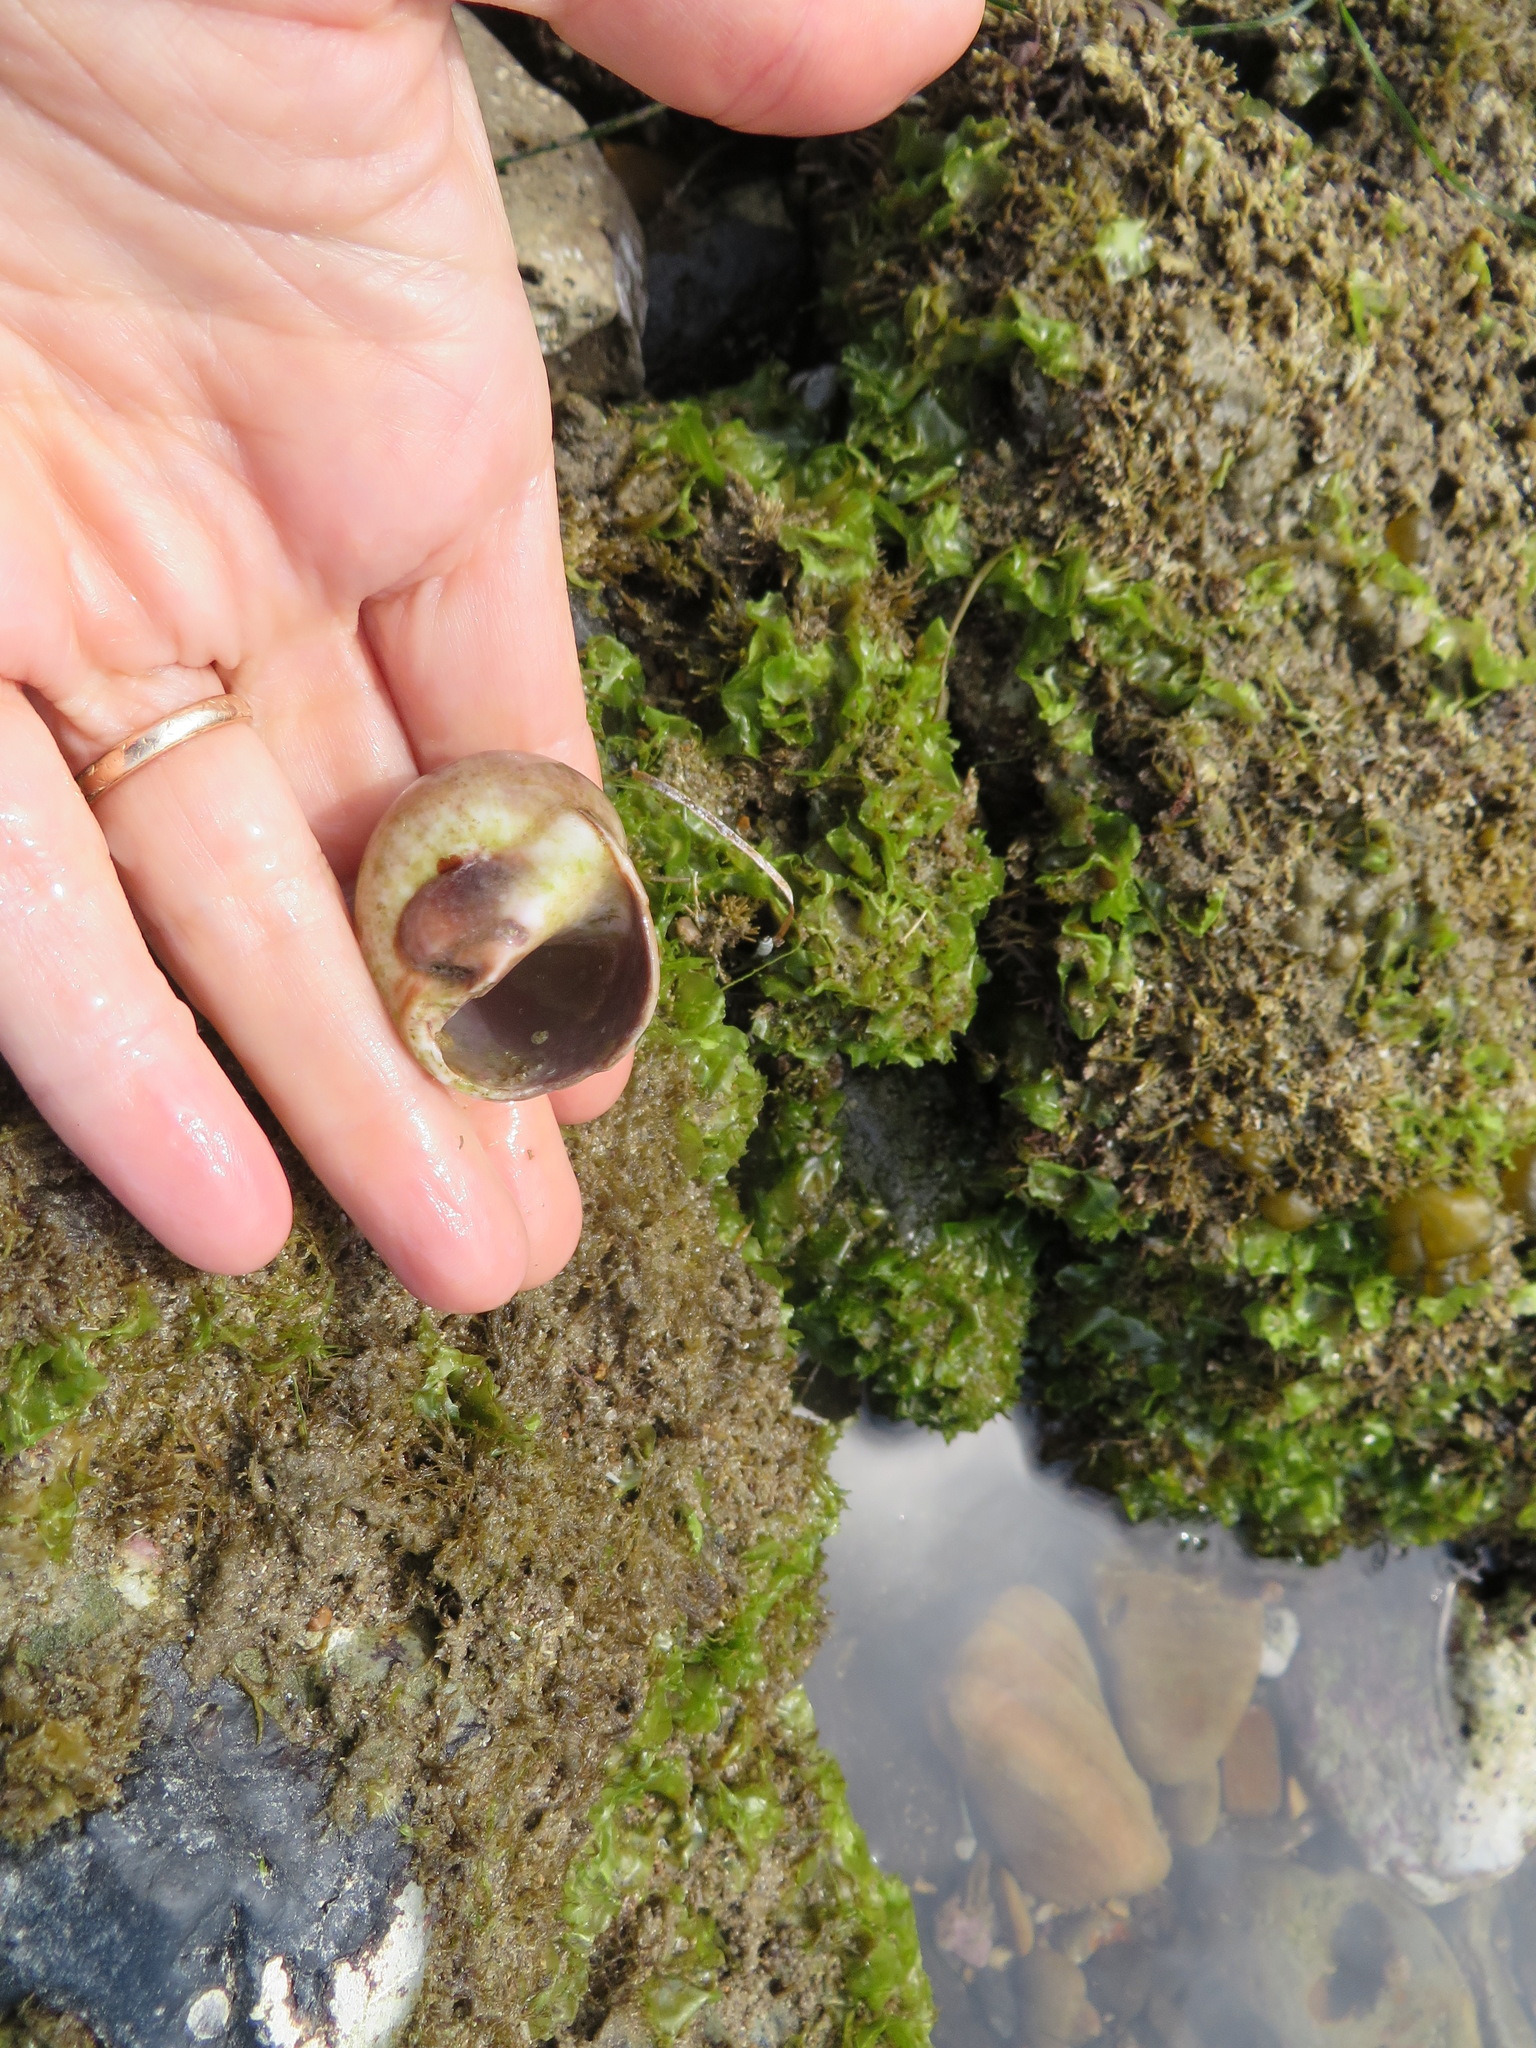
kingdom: Animalia
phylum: Mollusca
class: Gastropoda
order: Littorinimorpha
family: Naticidae
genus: Glossaulax
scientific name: Glossaulax reclusiana
